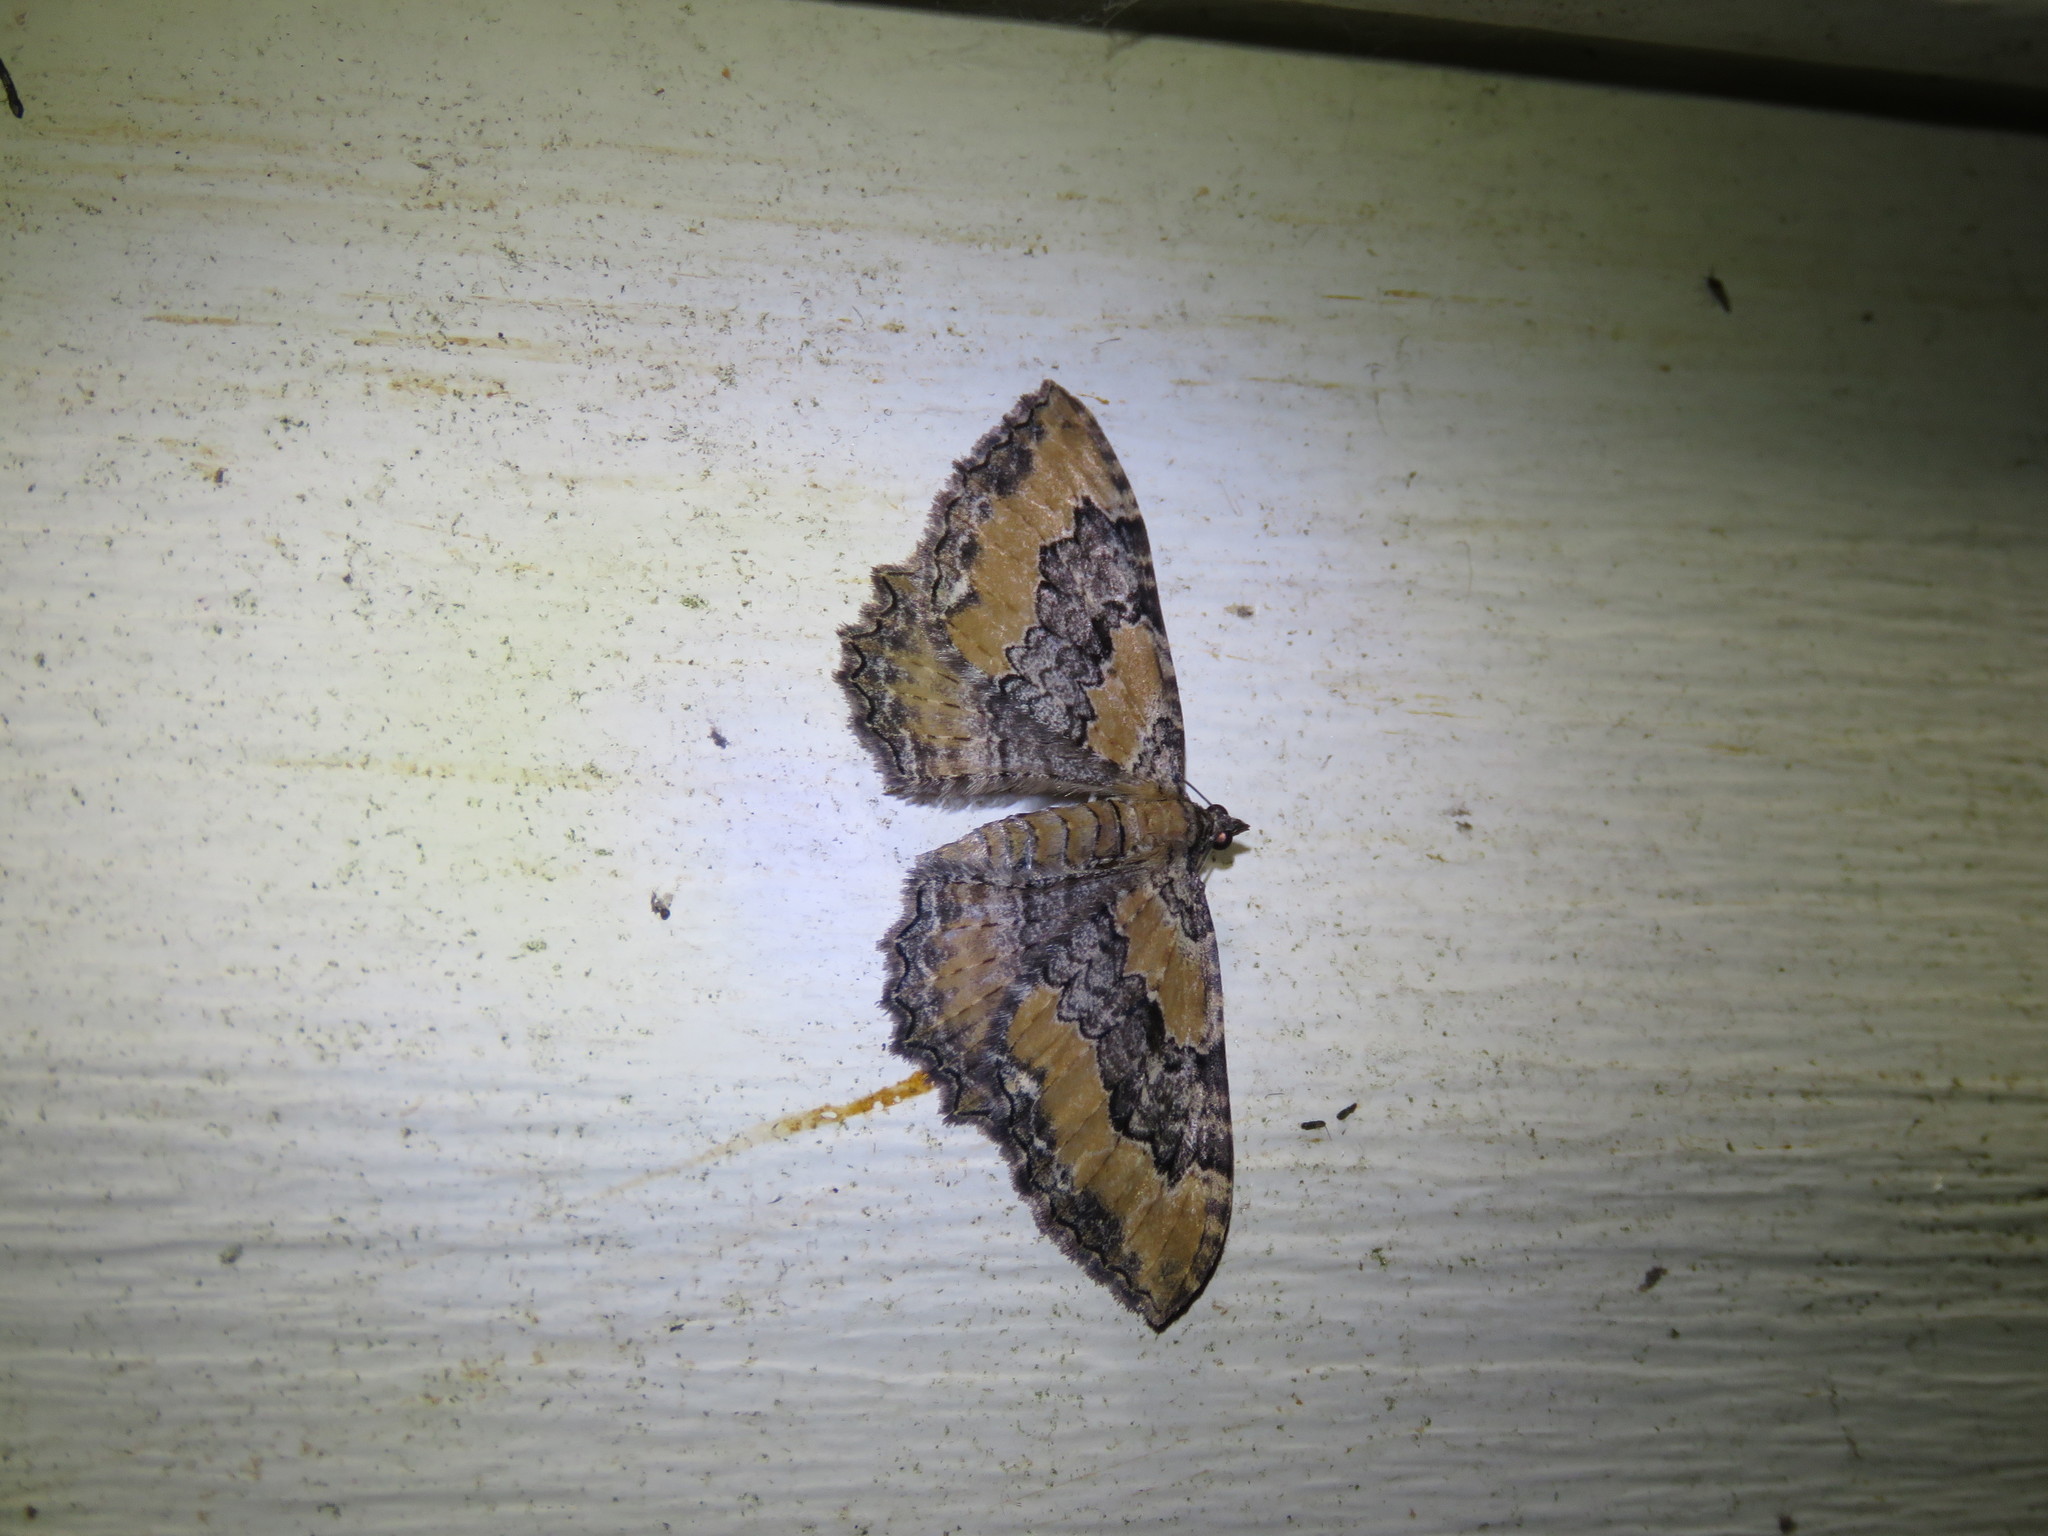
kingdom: Animalia
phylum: Arthropoda
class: Insecta
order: Lepidoptera
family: Geometridae
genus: Rheumaptera
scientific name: Rheumaptera
